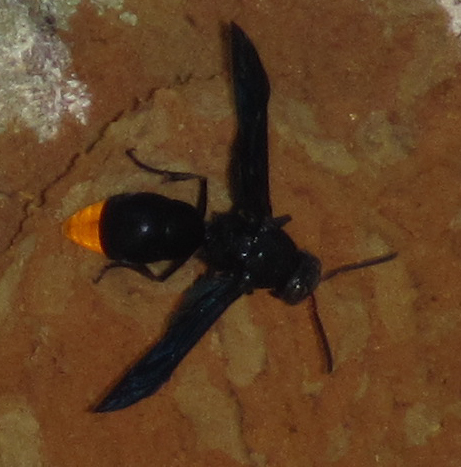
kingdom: Animalia
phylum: Arthropoda
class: Insecta
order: Hymenoptera
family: Vespidae
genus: Synagris
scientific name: Synagris analis
